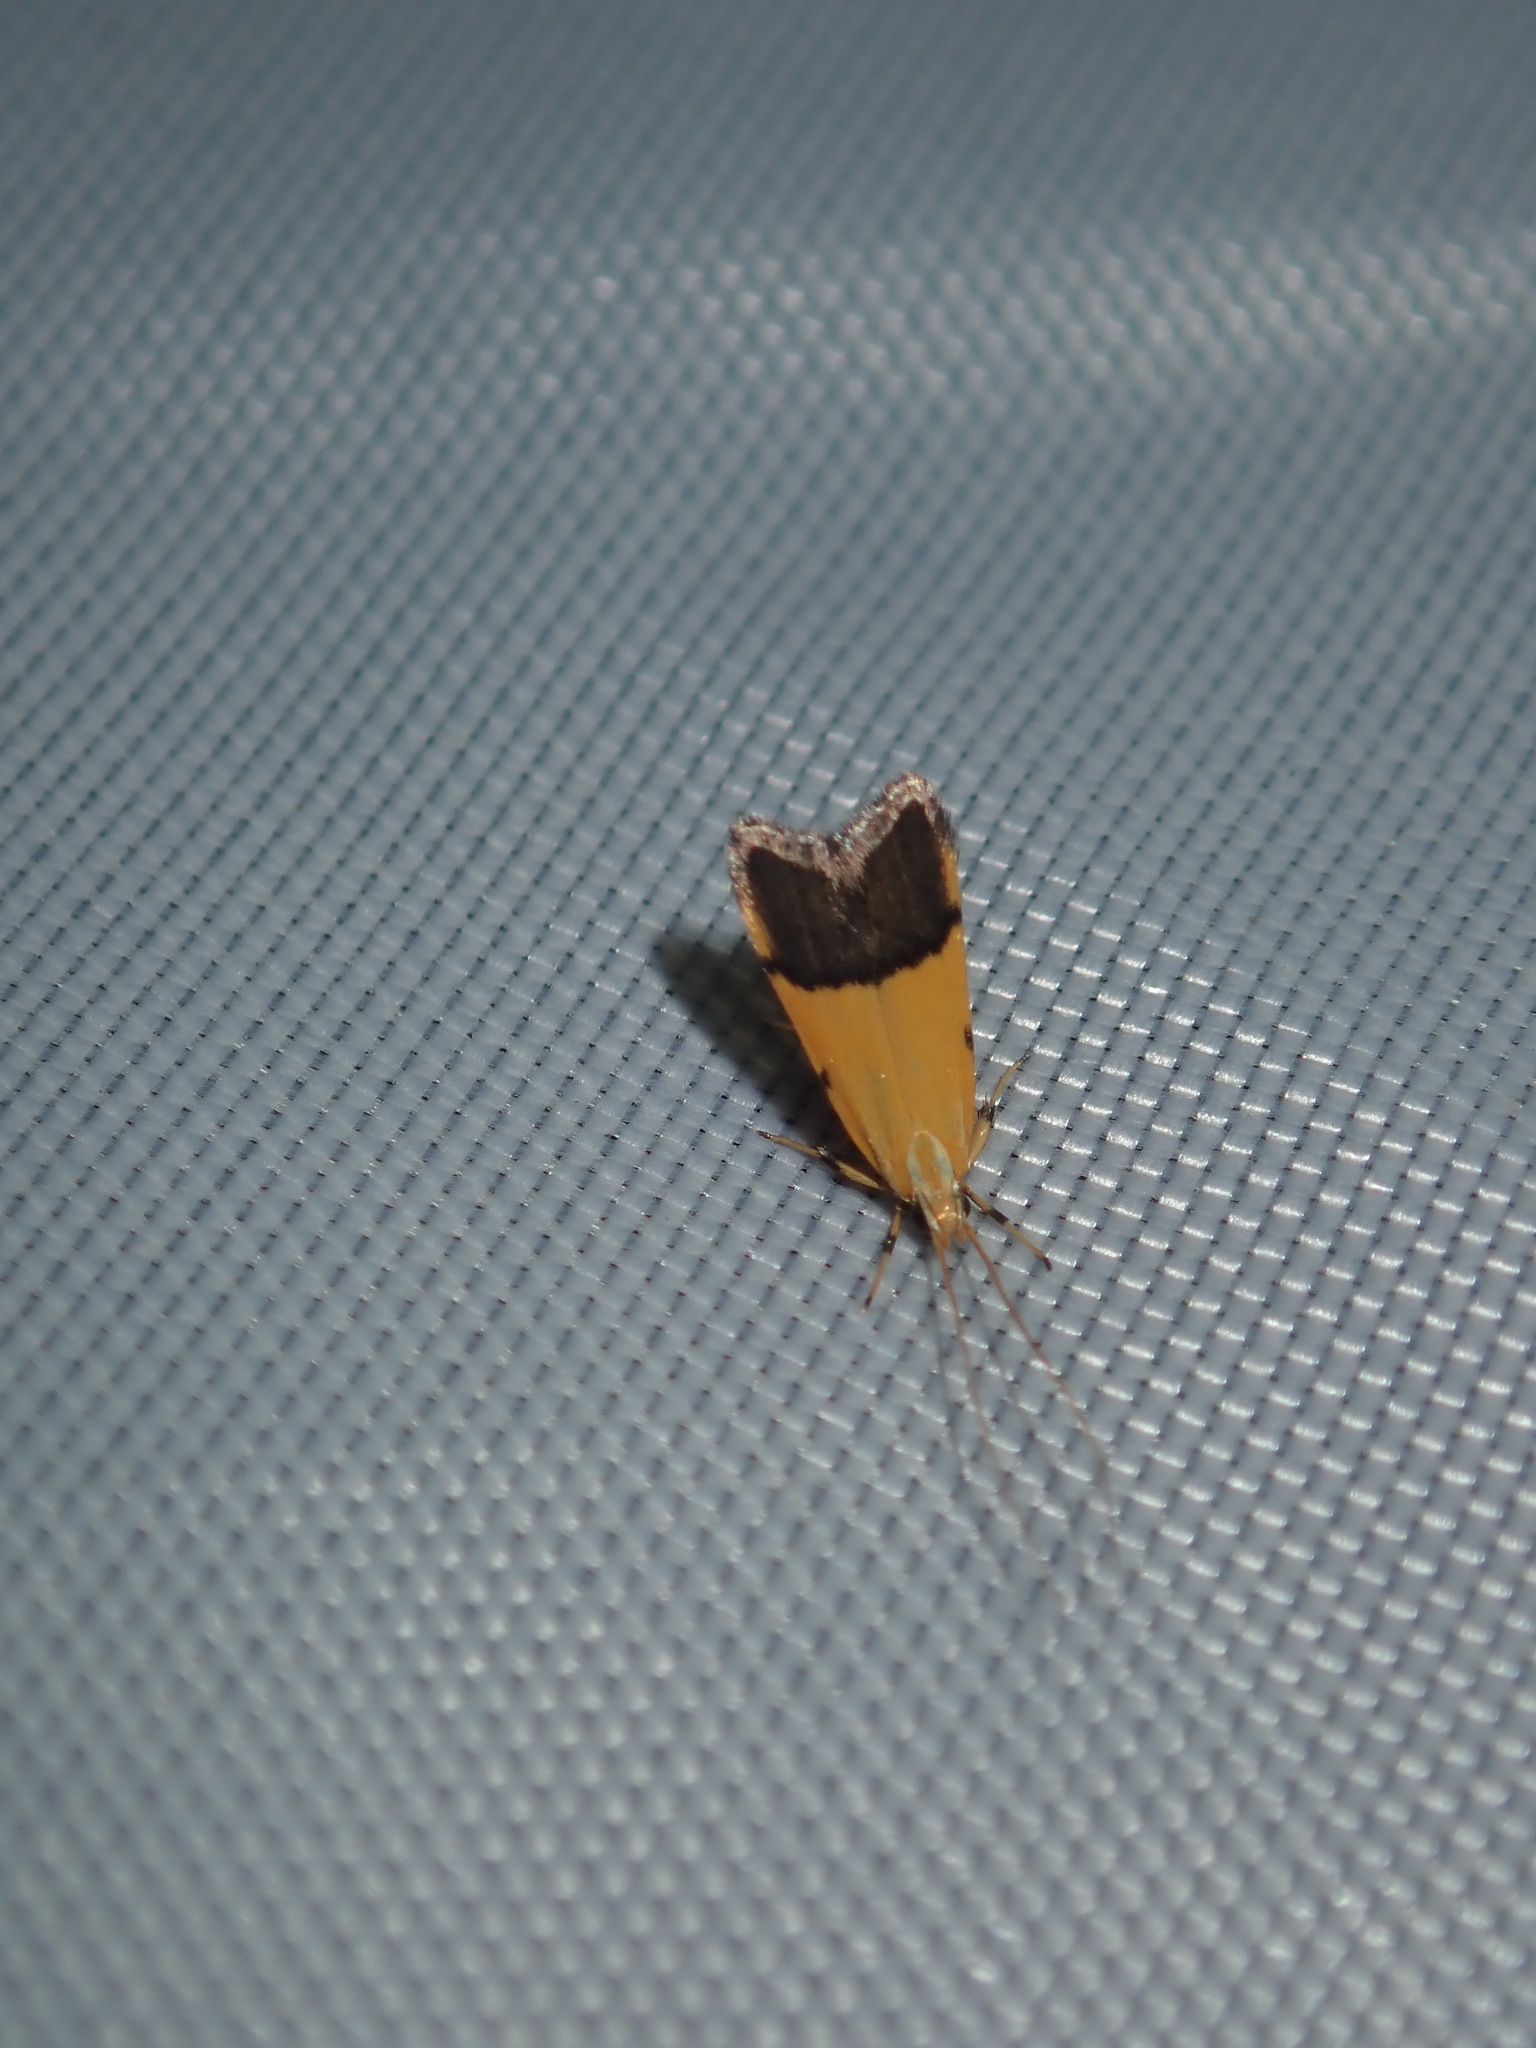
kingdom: Animalia
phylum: Arthropoda
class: Insecta
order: Lepidoptera
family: Lecithoceridae
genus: Crocanthes
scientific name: Crocanthes micradelpha
